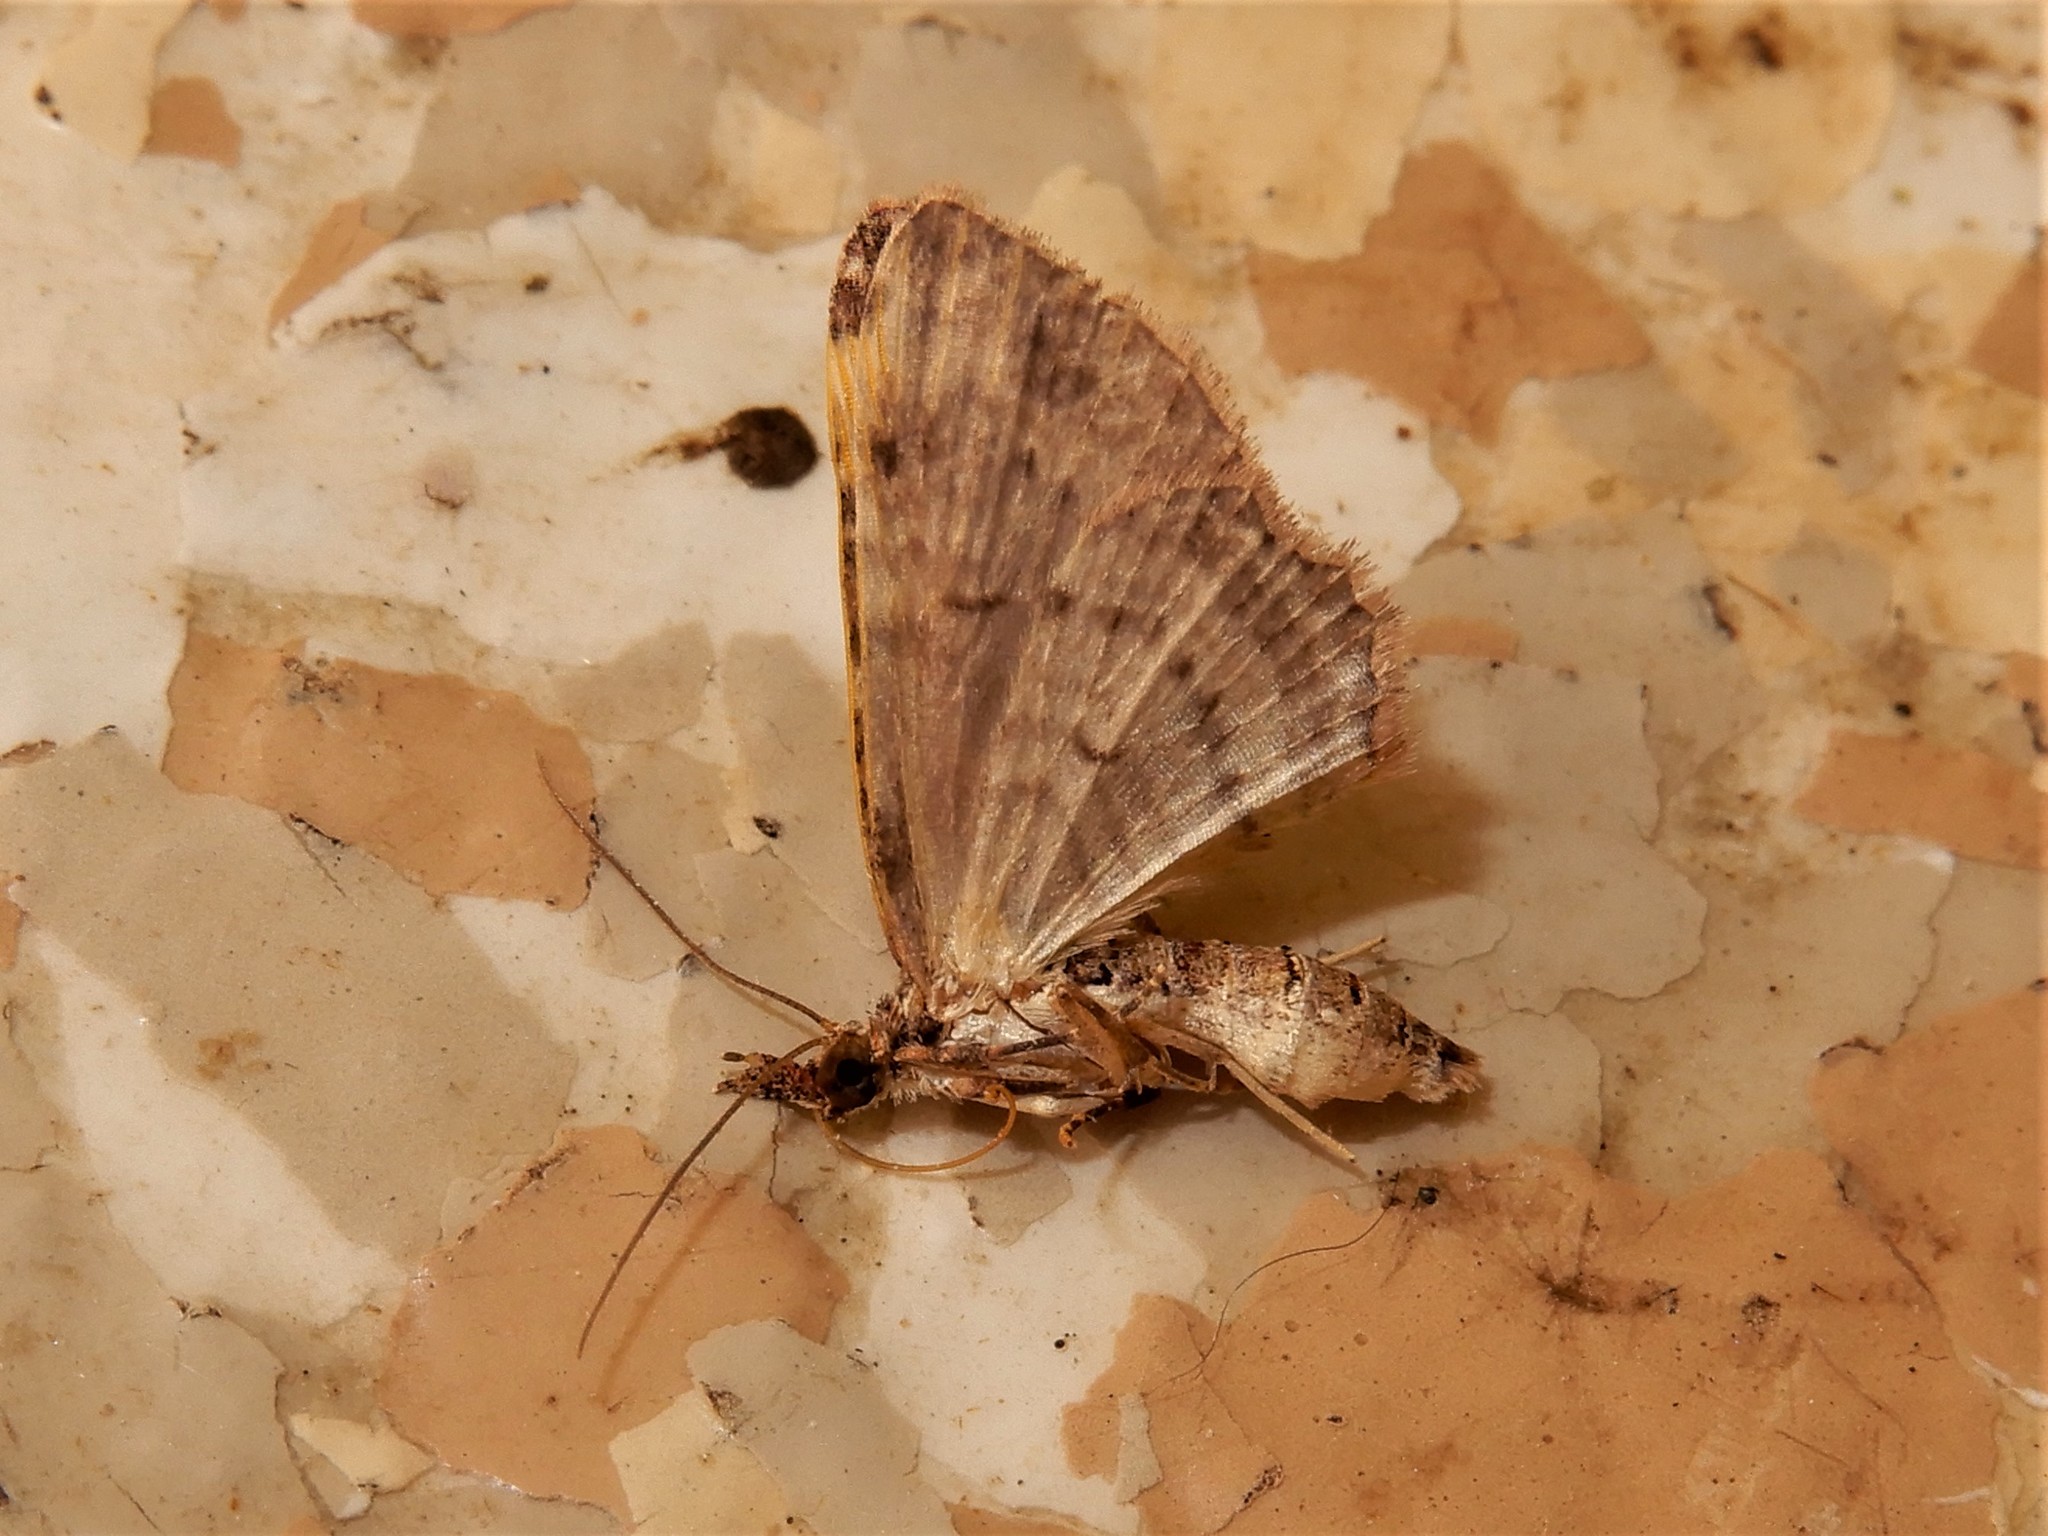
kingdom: Animalia
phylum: Arthropoda
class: Insecta
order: Lepidoptera
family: Geometridae
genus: Chloroclystis
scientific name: Chloroclystis filata
